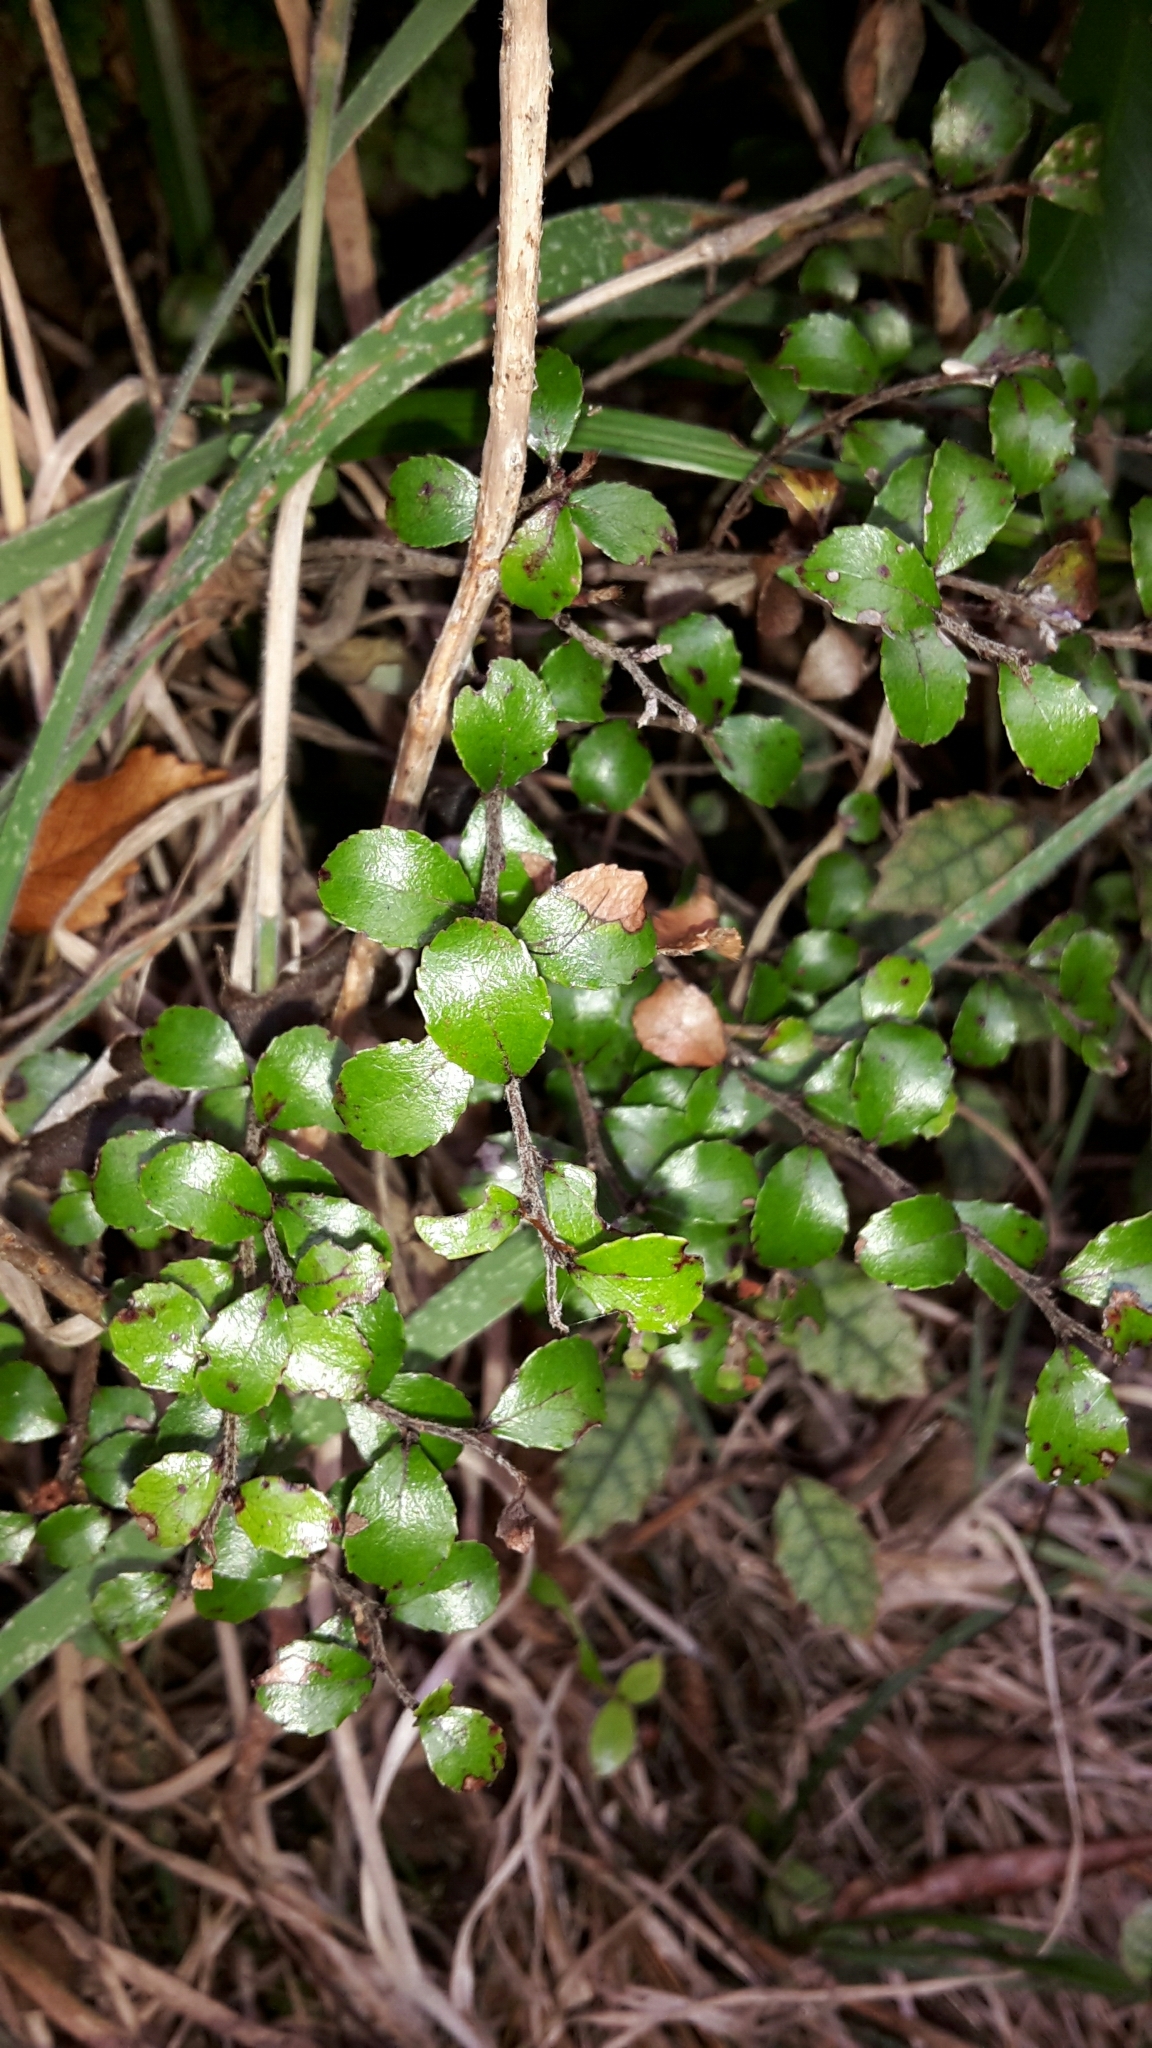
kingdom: Plantae
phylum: Tracheophyta
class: Magnoliopsida
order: Ericales
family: Ericaceae
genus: Gaultheria
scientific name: Gaultheria antipoda
